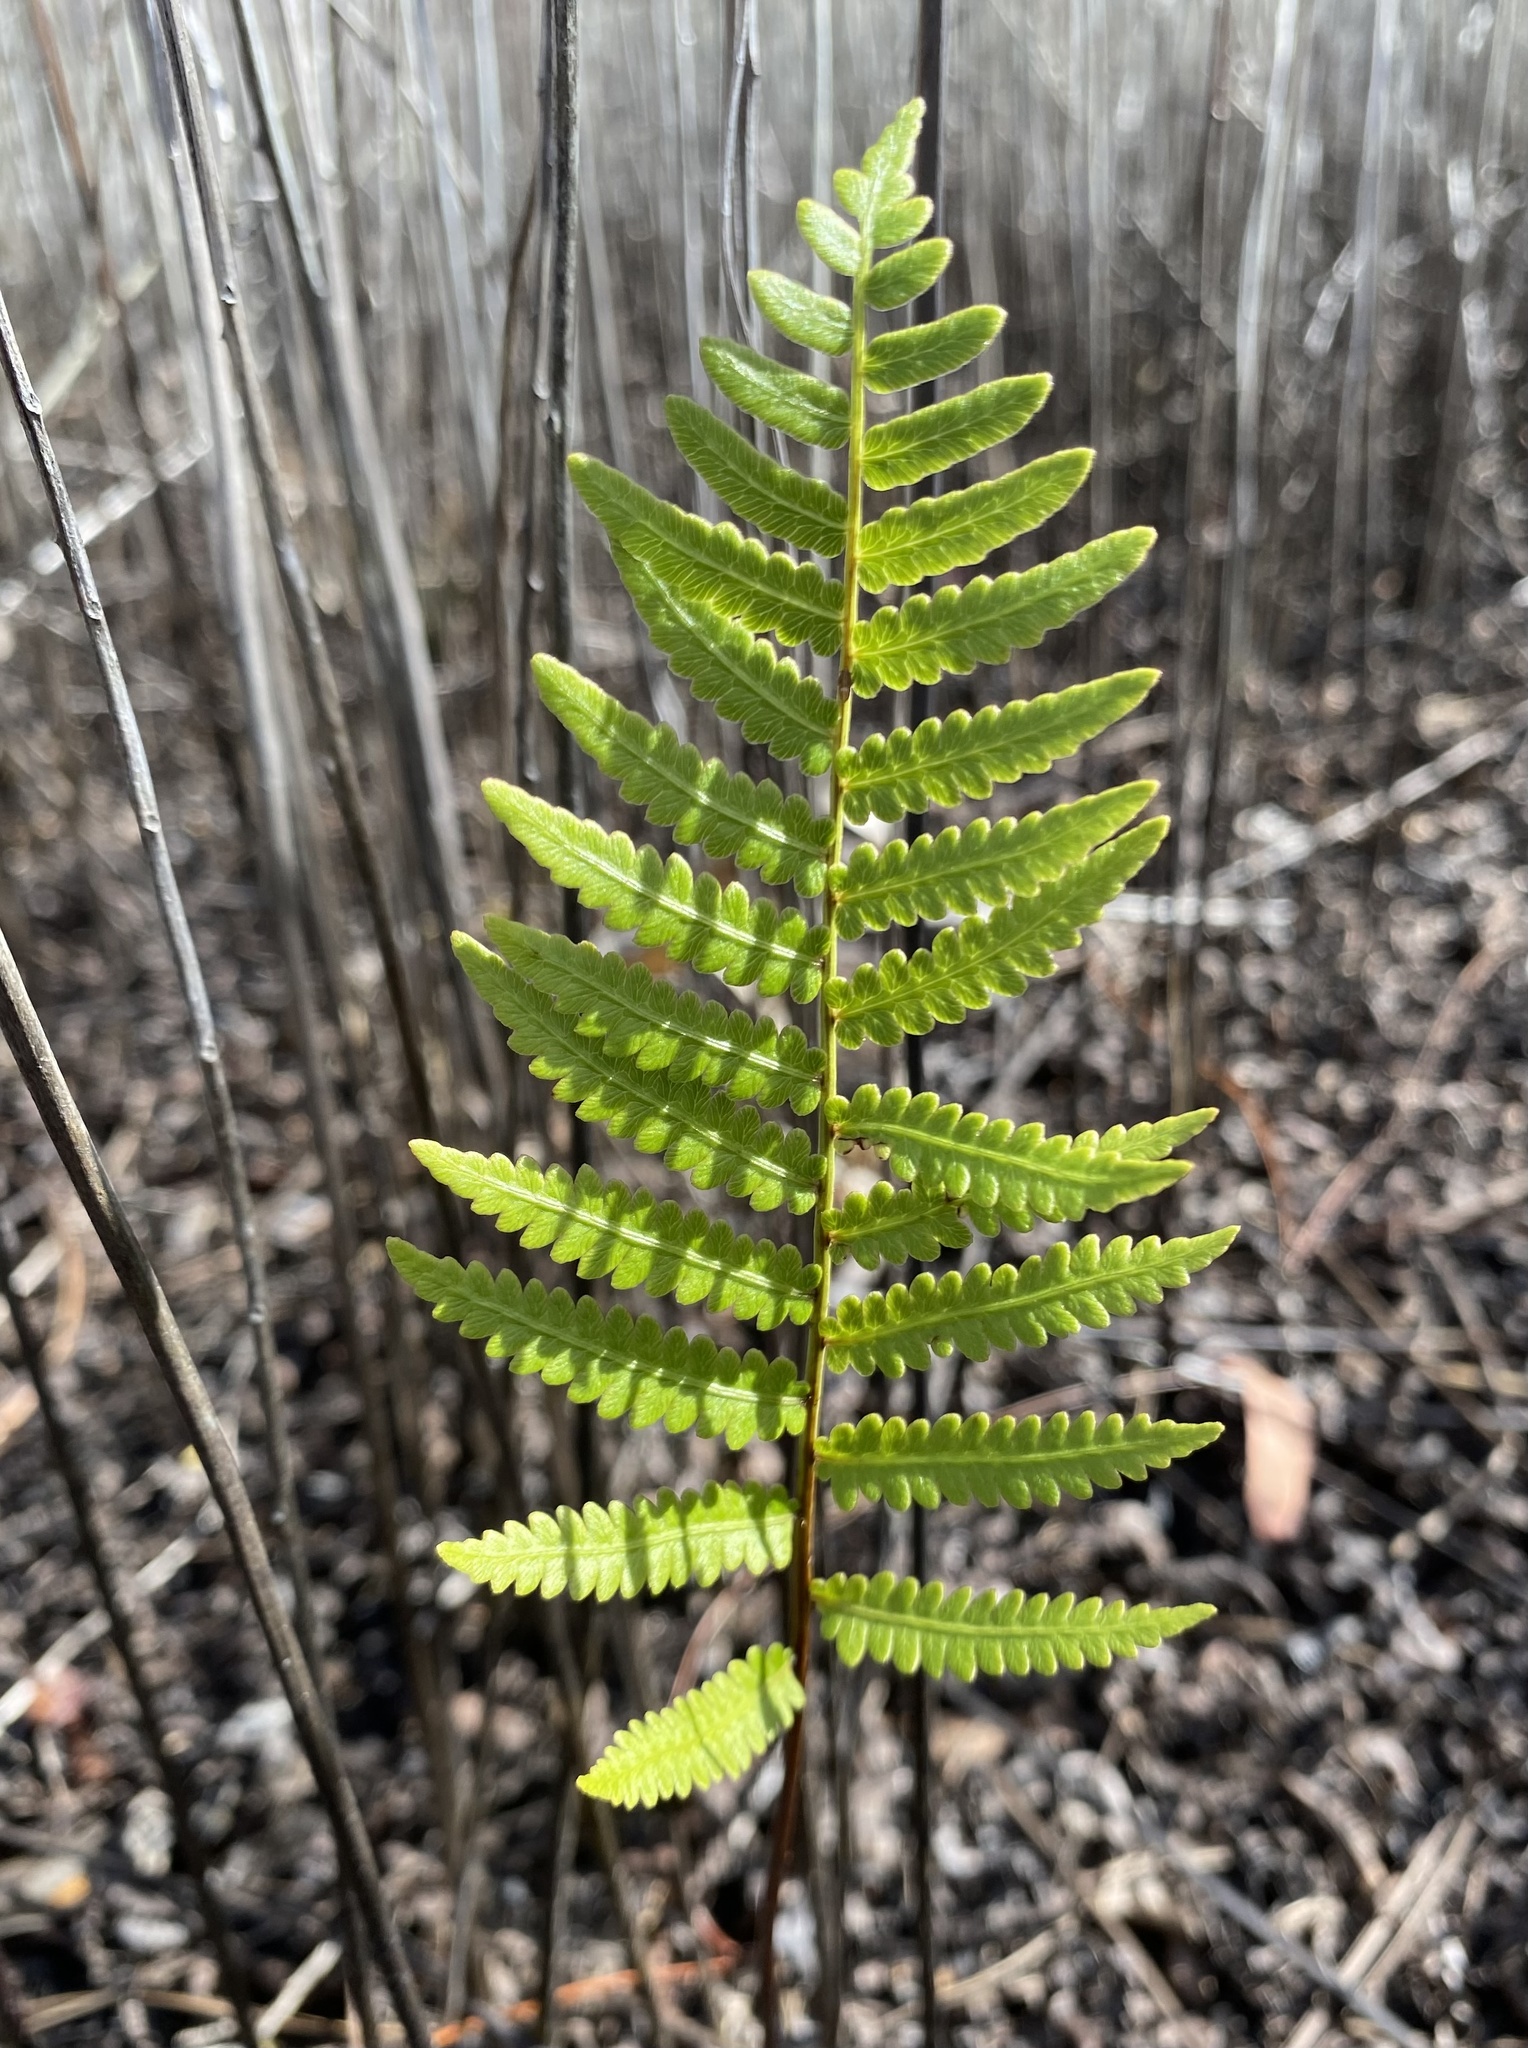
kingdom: Plantae
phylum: Tracheophyta
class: Polypodiopsida
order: Polypodiales
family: Thelypteridaceae
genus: Cyclosorus
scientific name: Cyclosorus interruptus
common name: Neke fern
